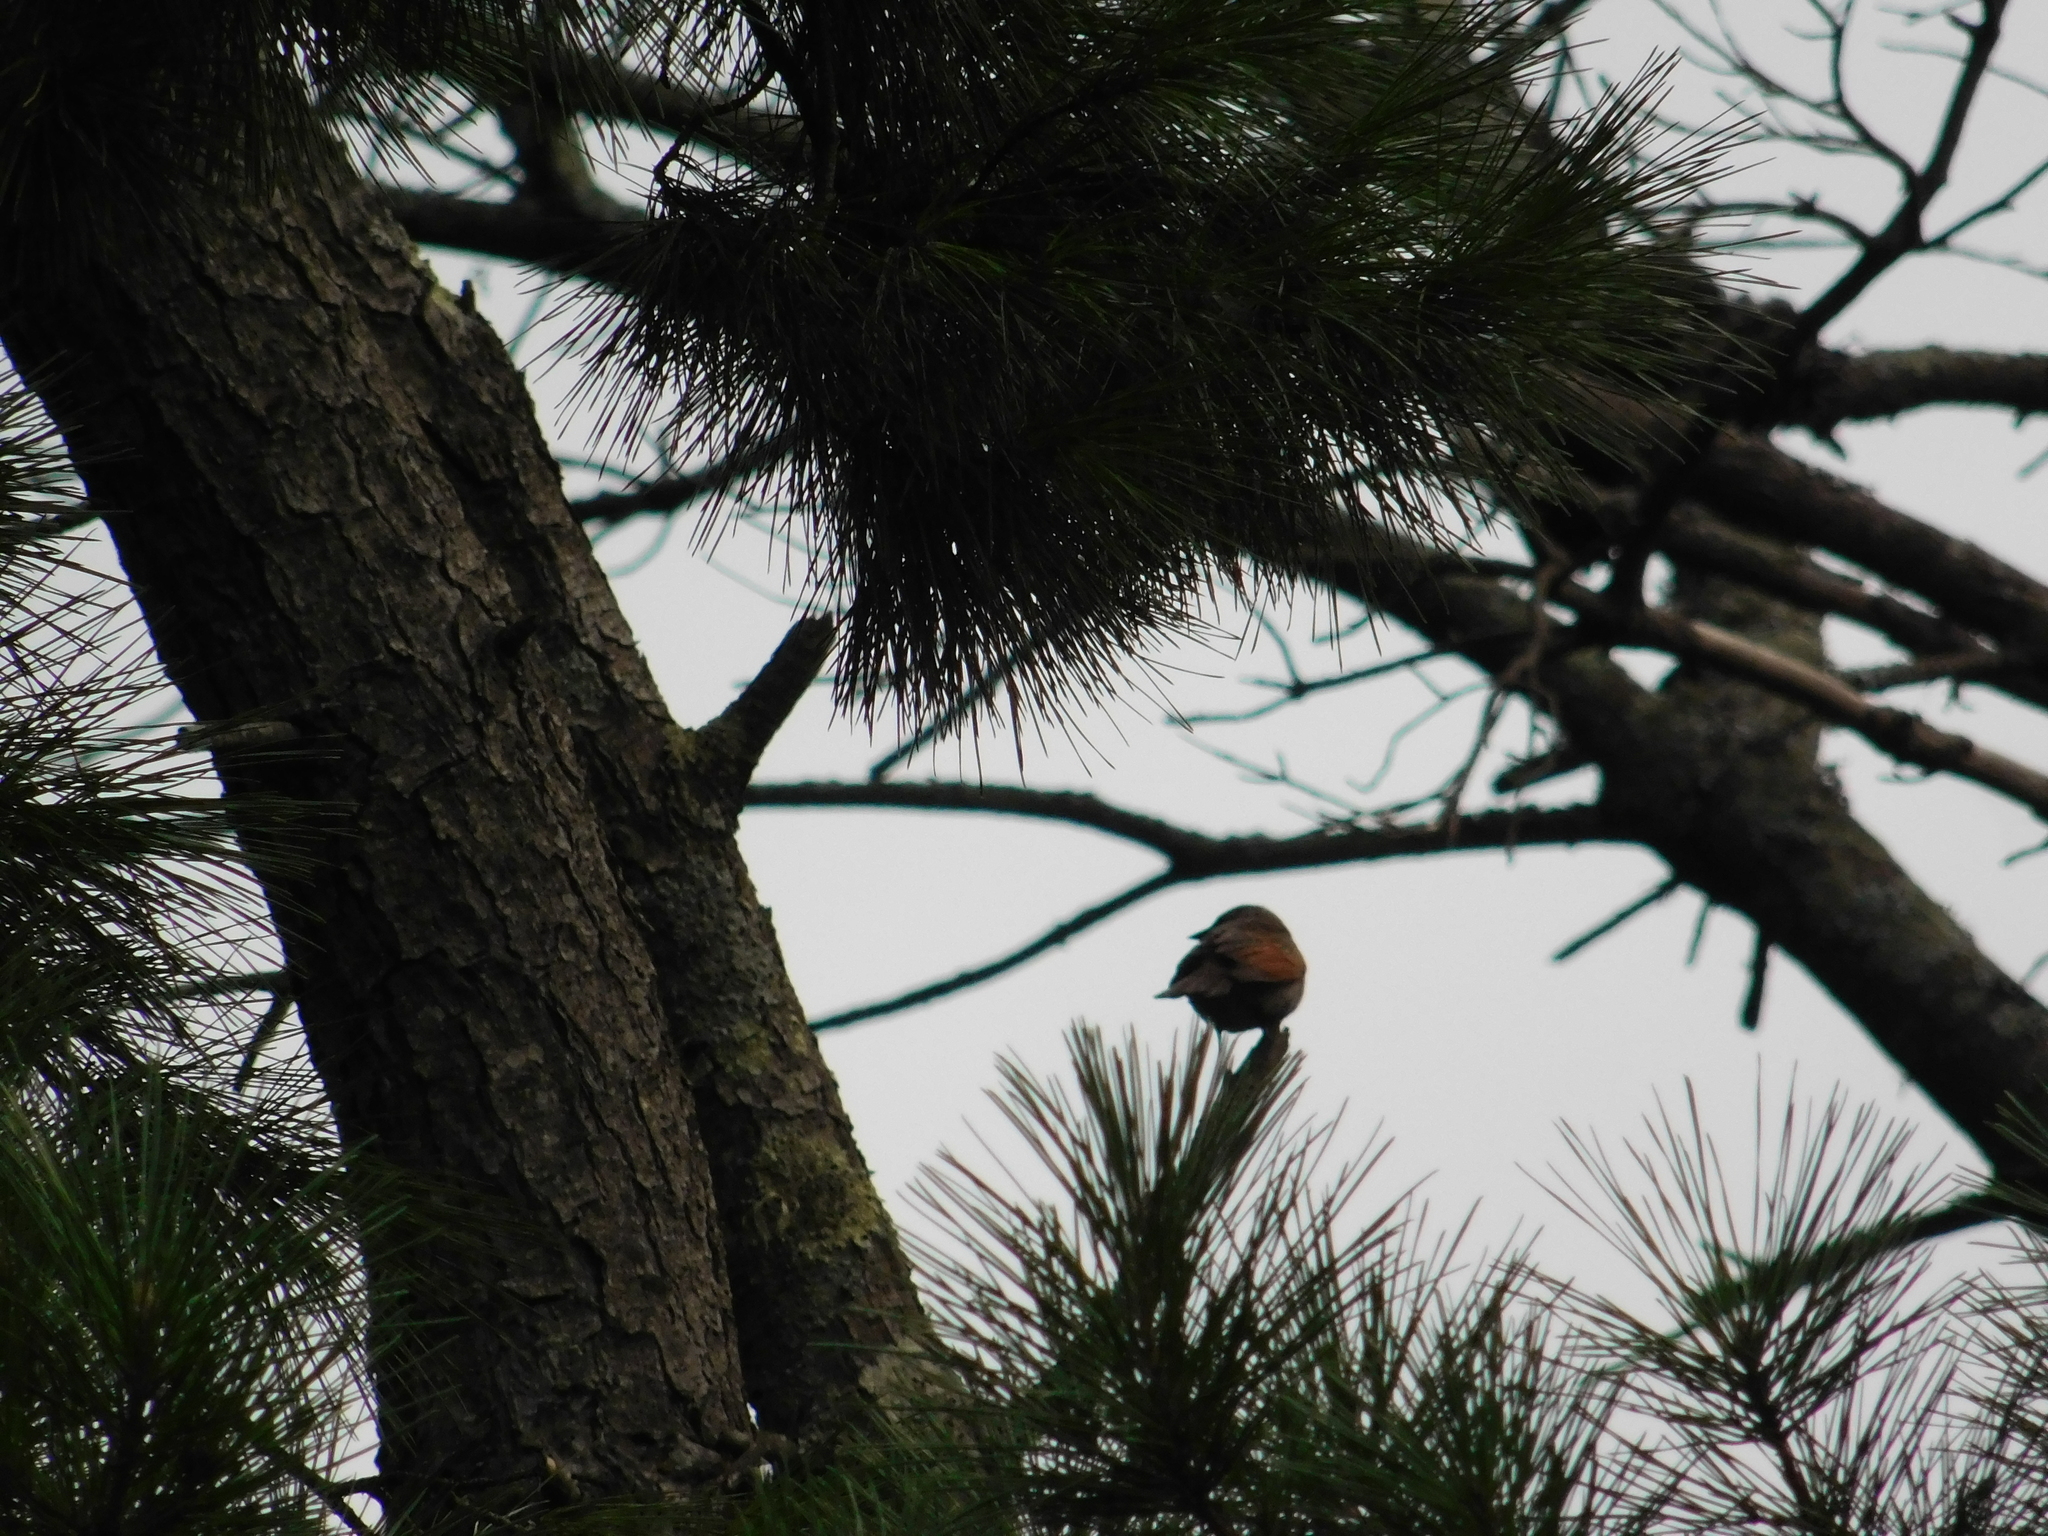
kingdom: Animalia
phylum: Chordata
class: Aves
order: Passeriformes
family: Icteridae
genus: Agelaioides
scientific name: Agelaioides badius
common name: Baywing
